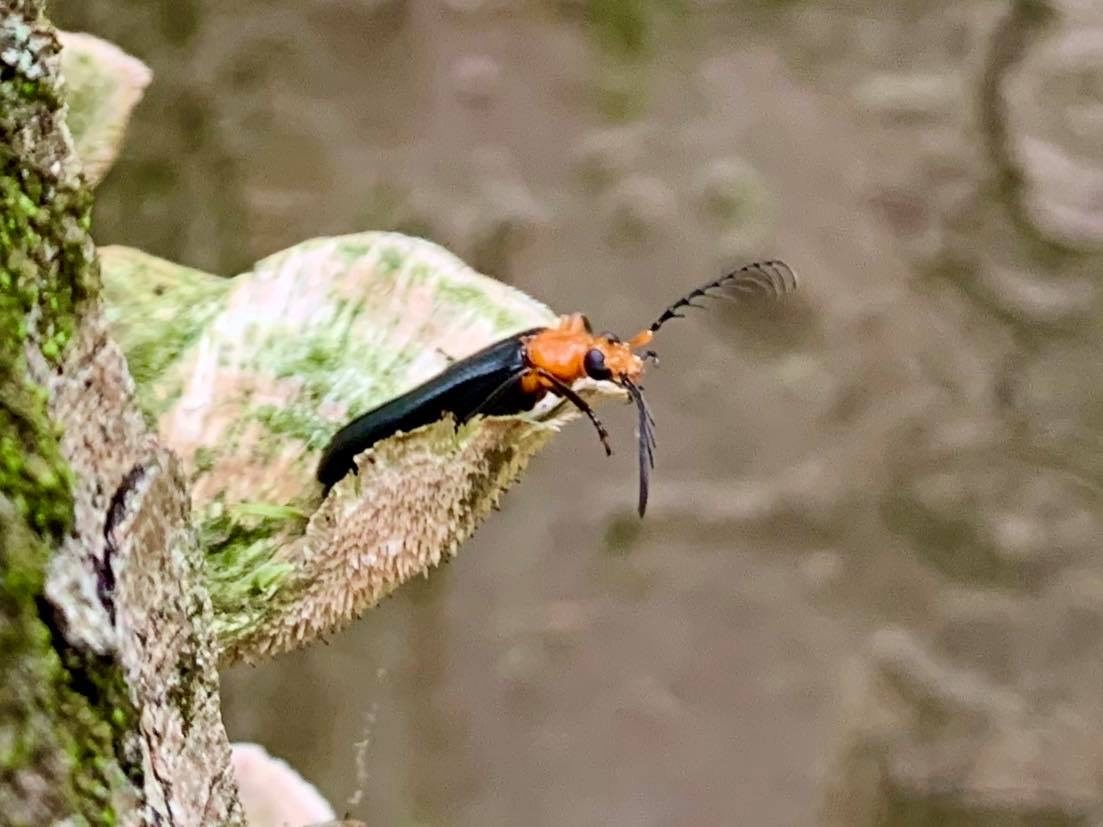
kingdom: Animalia
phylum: Arthropoda
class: Insecta
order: Coleoptera
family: Pyrochroidae
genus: Neopyrochroa
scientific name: Neopyrochroa femoralis
